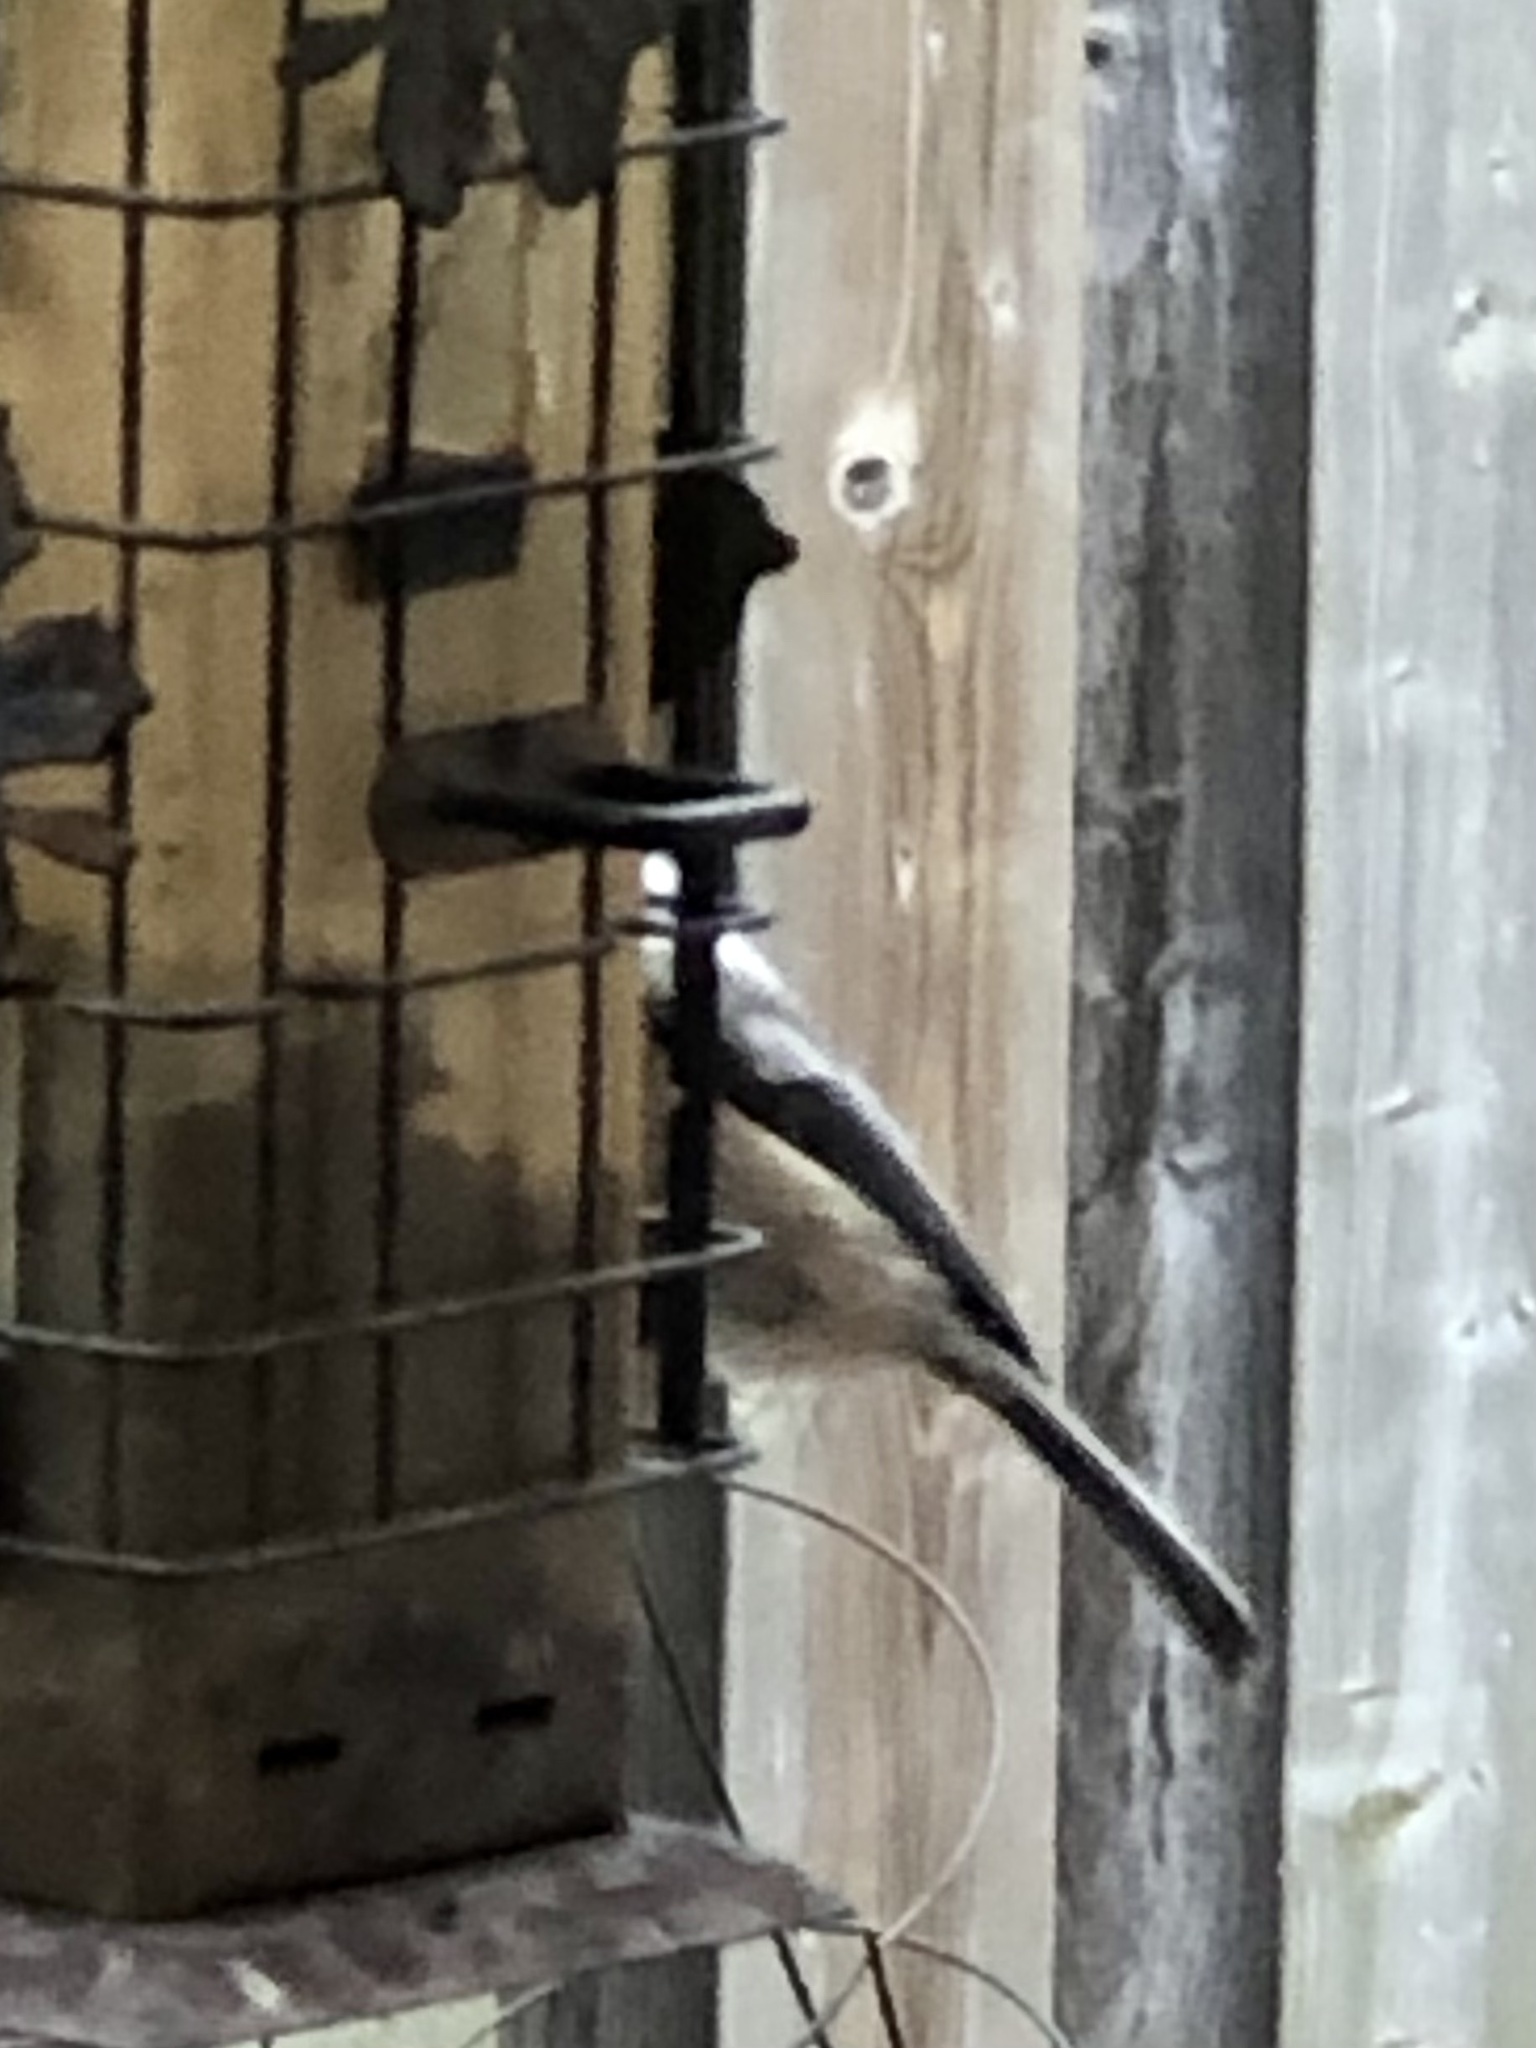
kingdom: Animalia
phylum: Chordata
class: Aves
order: Passeriformes
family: Paridae
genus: Poecile
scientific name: Poecile atricapillus
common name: Black-capped chickadee
